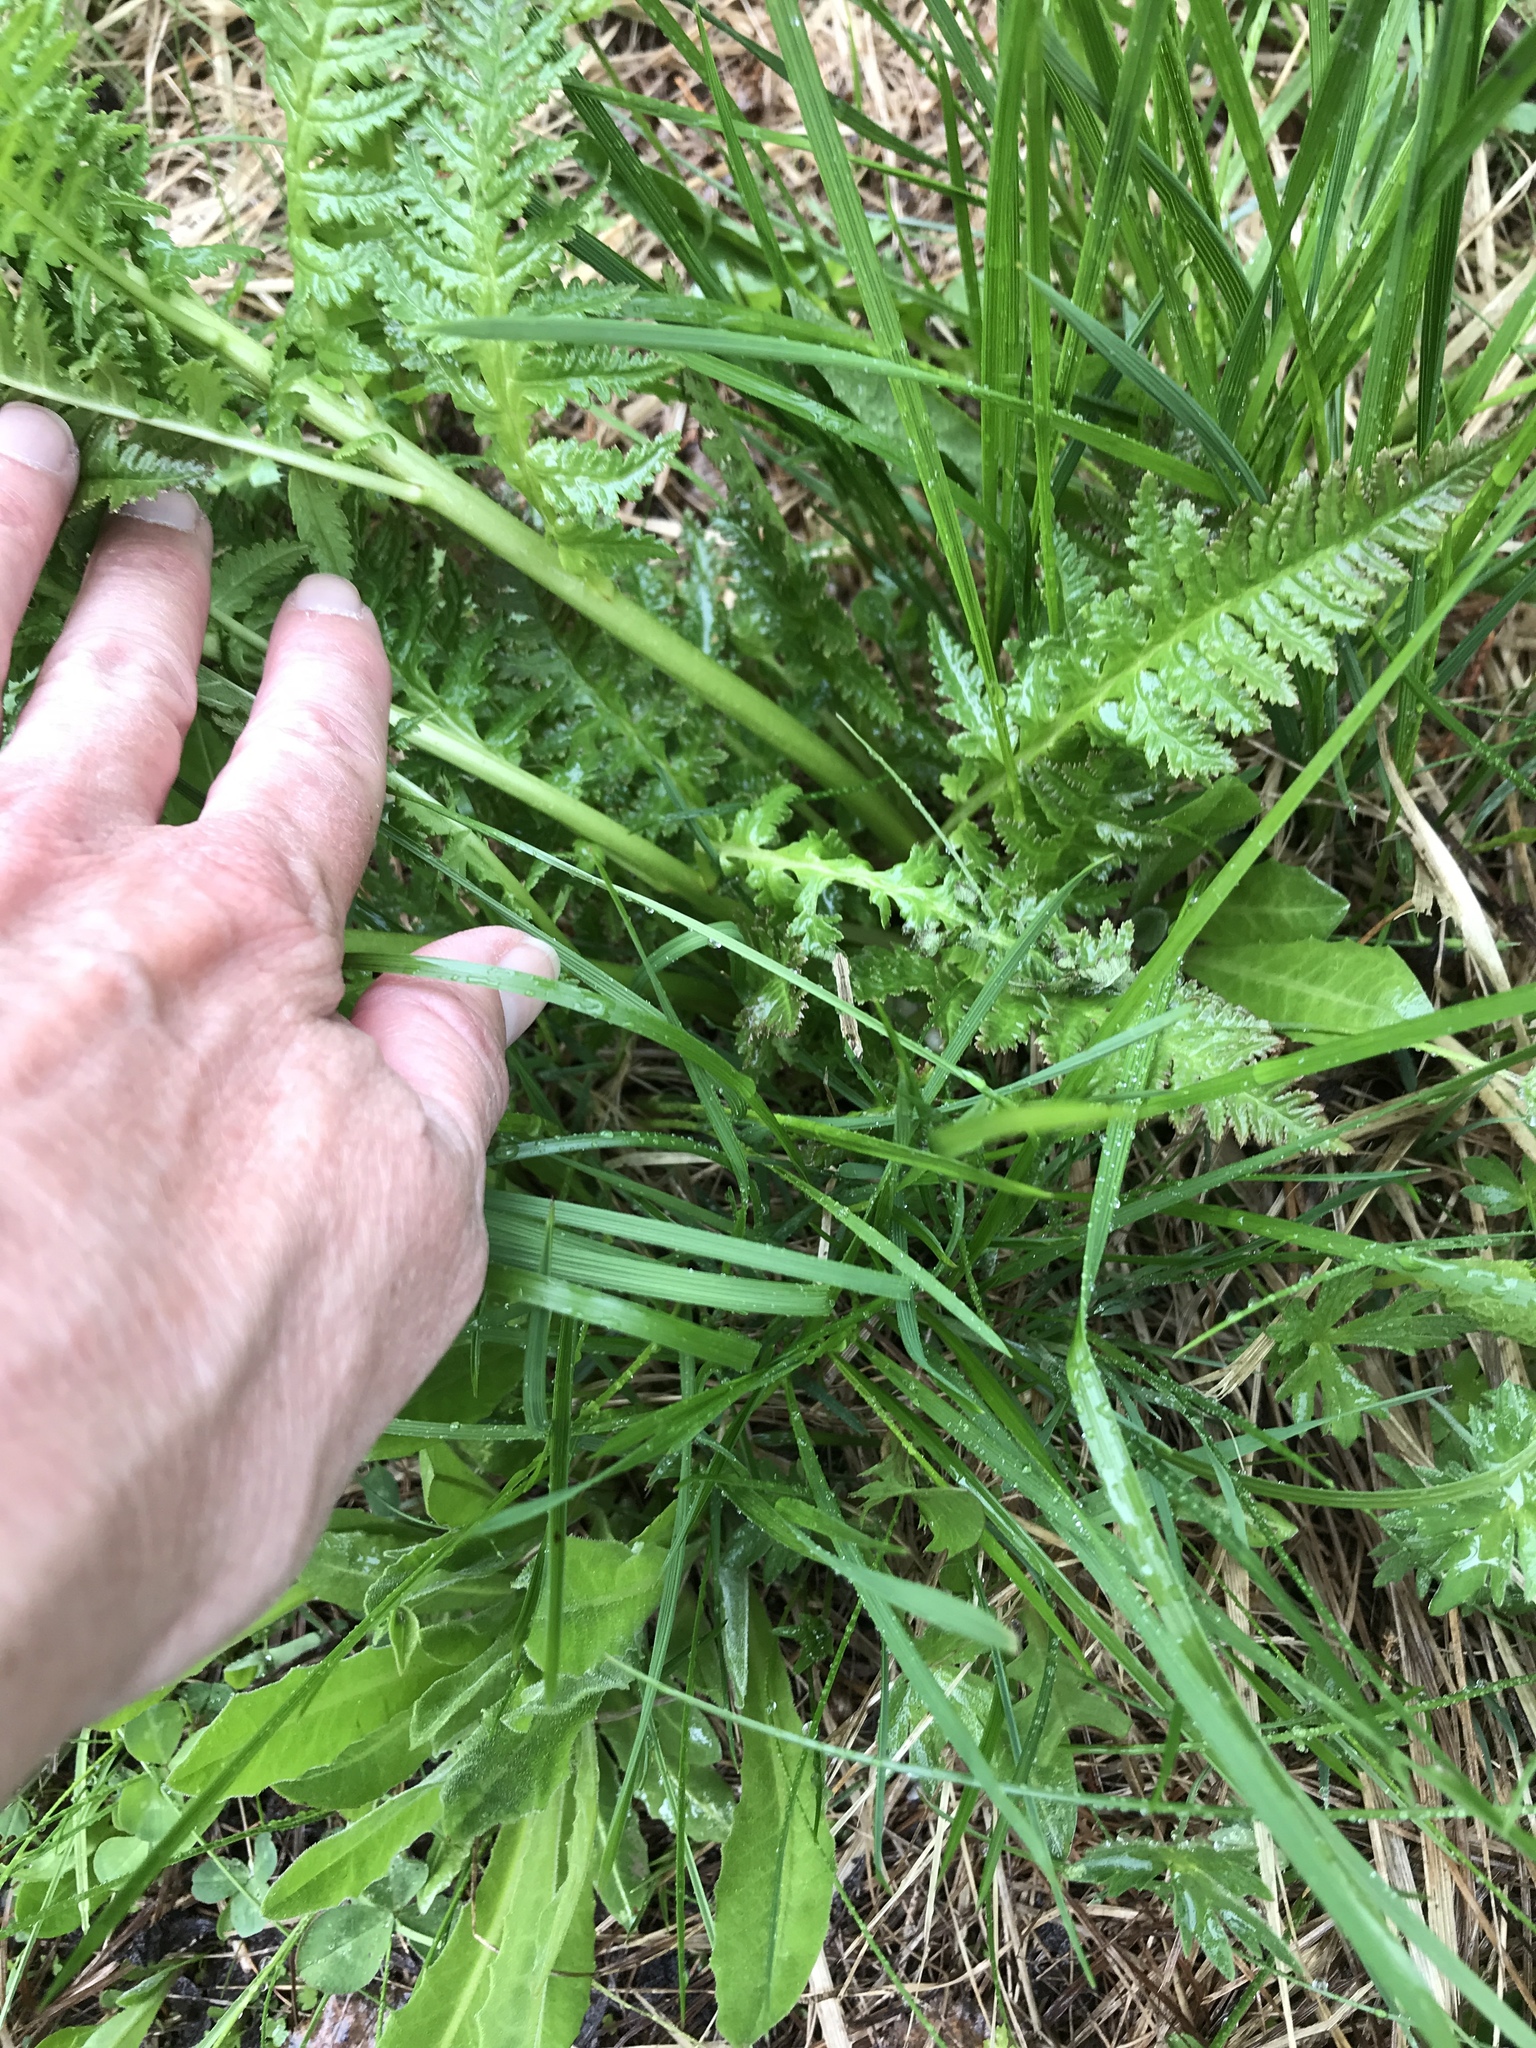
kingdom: Plantae
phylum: Tracheophyta
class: Magnoliopsida
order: Lamiales
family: Orobanchaceae
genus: Pedicularis
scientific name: Pedicularis recutita
